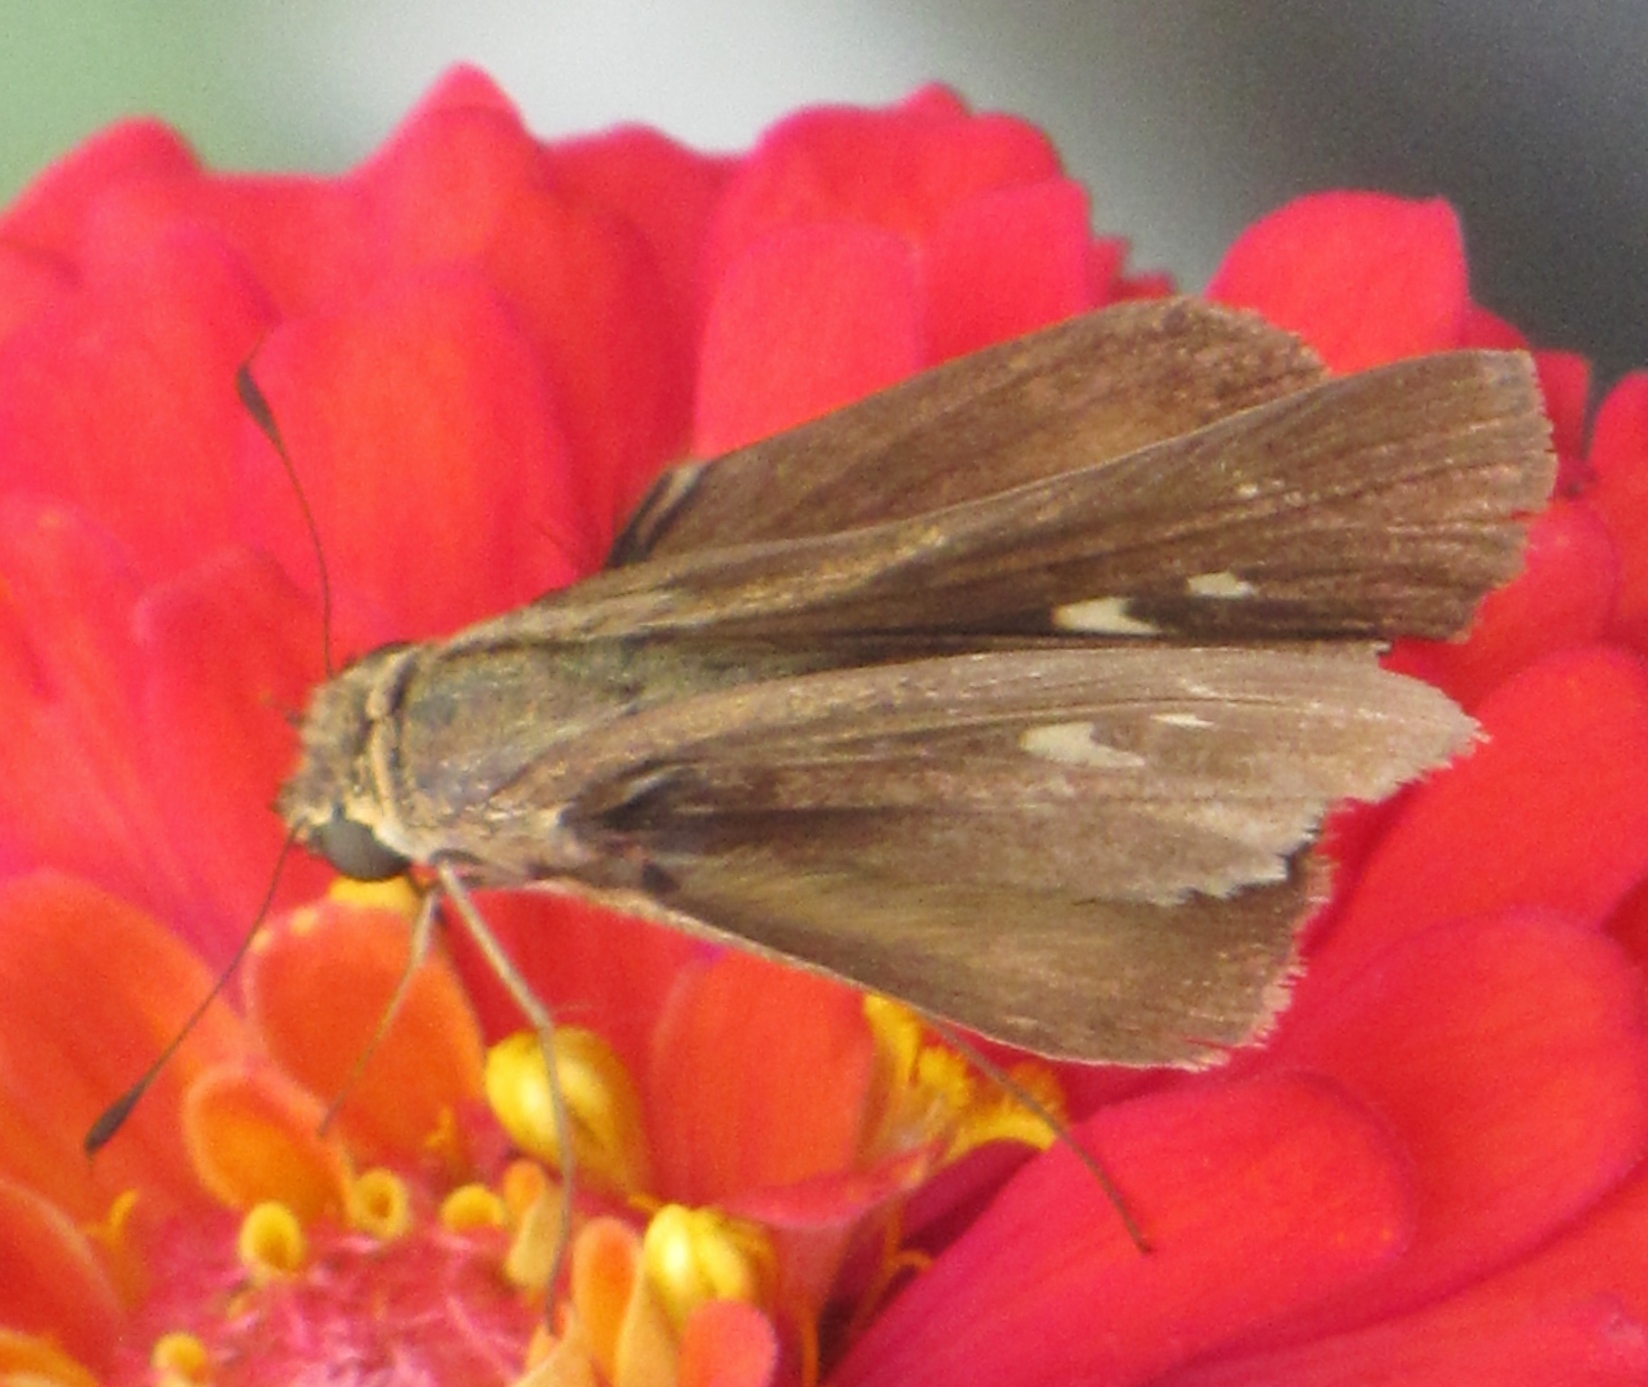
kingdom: Animalia
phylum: Arthropoda
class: Insecta
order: Lepidoptera
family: Hesperiidae
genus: Panoquina
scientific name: Panoquina ocola
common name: Ocola skipper
